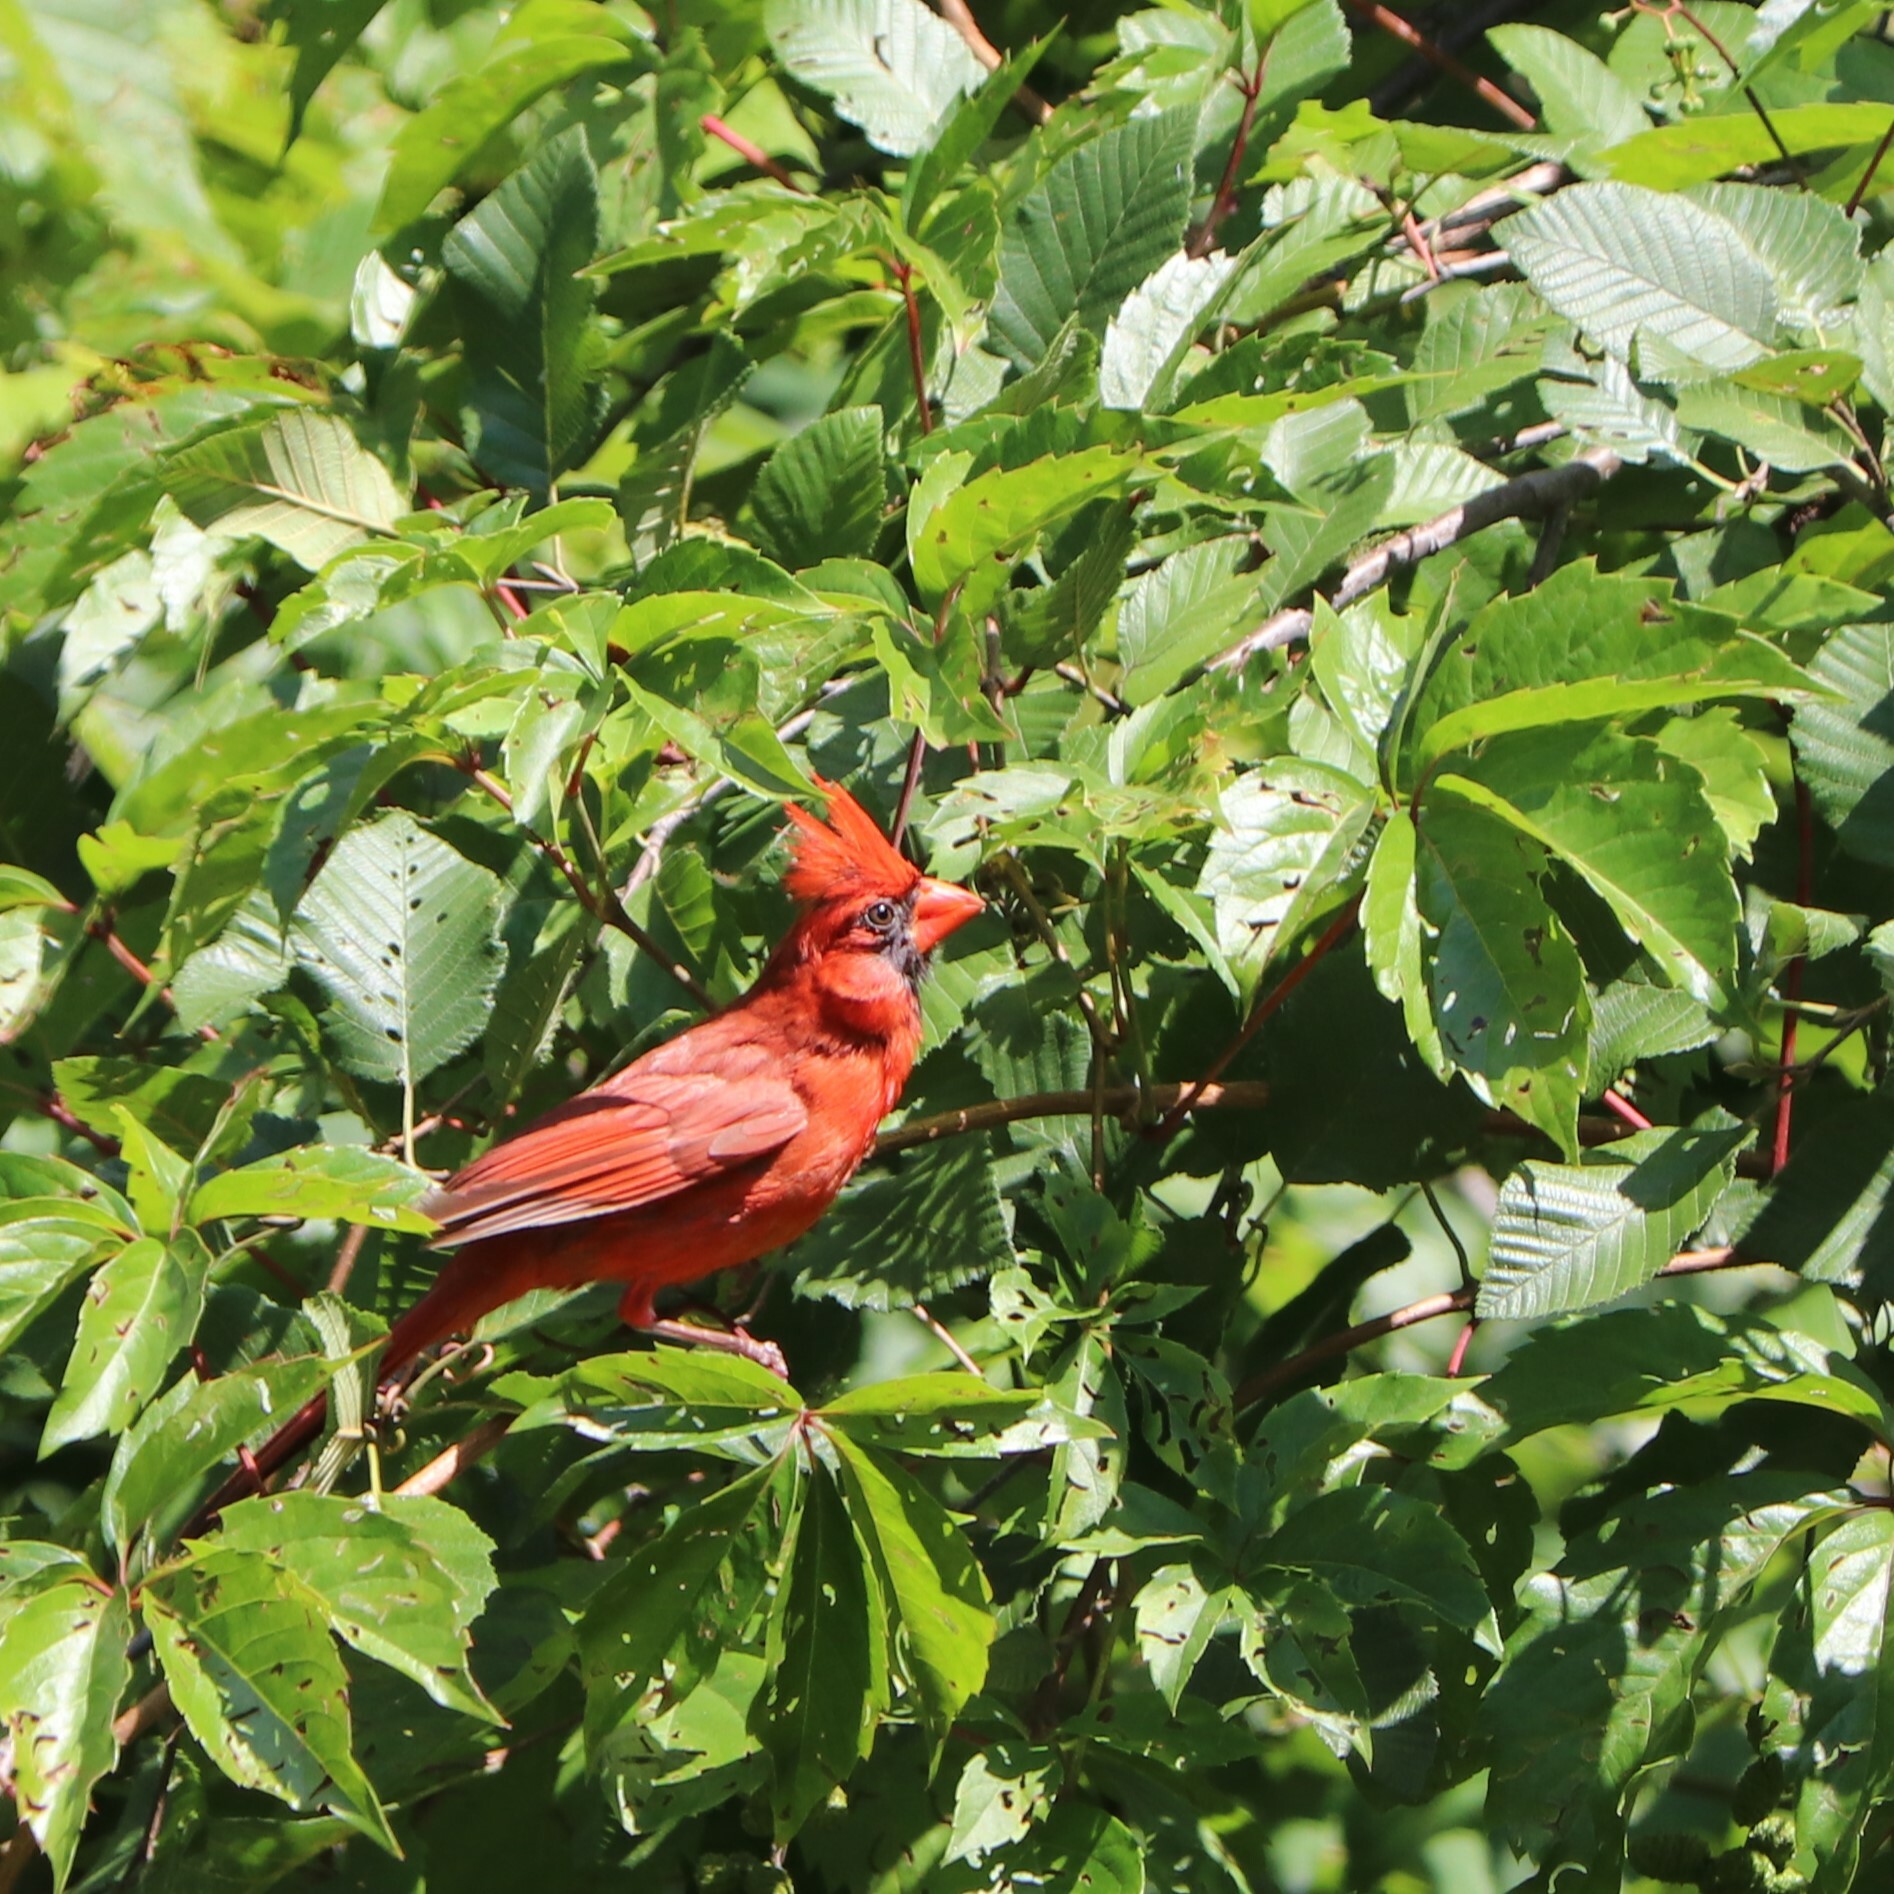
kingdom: Animalia
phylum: Chordata
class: Aves
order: Passeriformes
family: Cardinalidae
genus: Cardinalis
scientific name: Cardinalis cardinalis
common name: Northern cardinal
